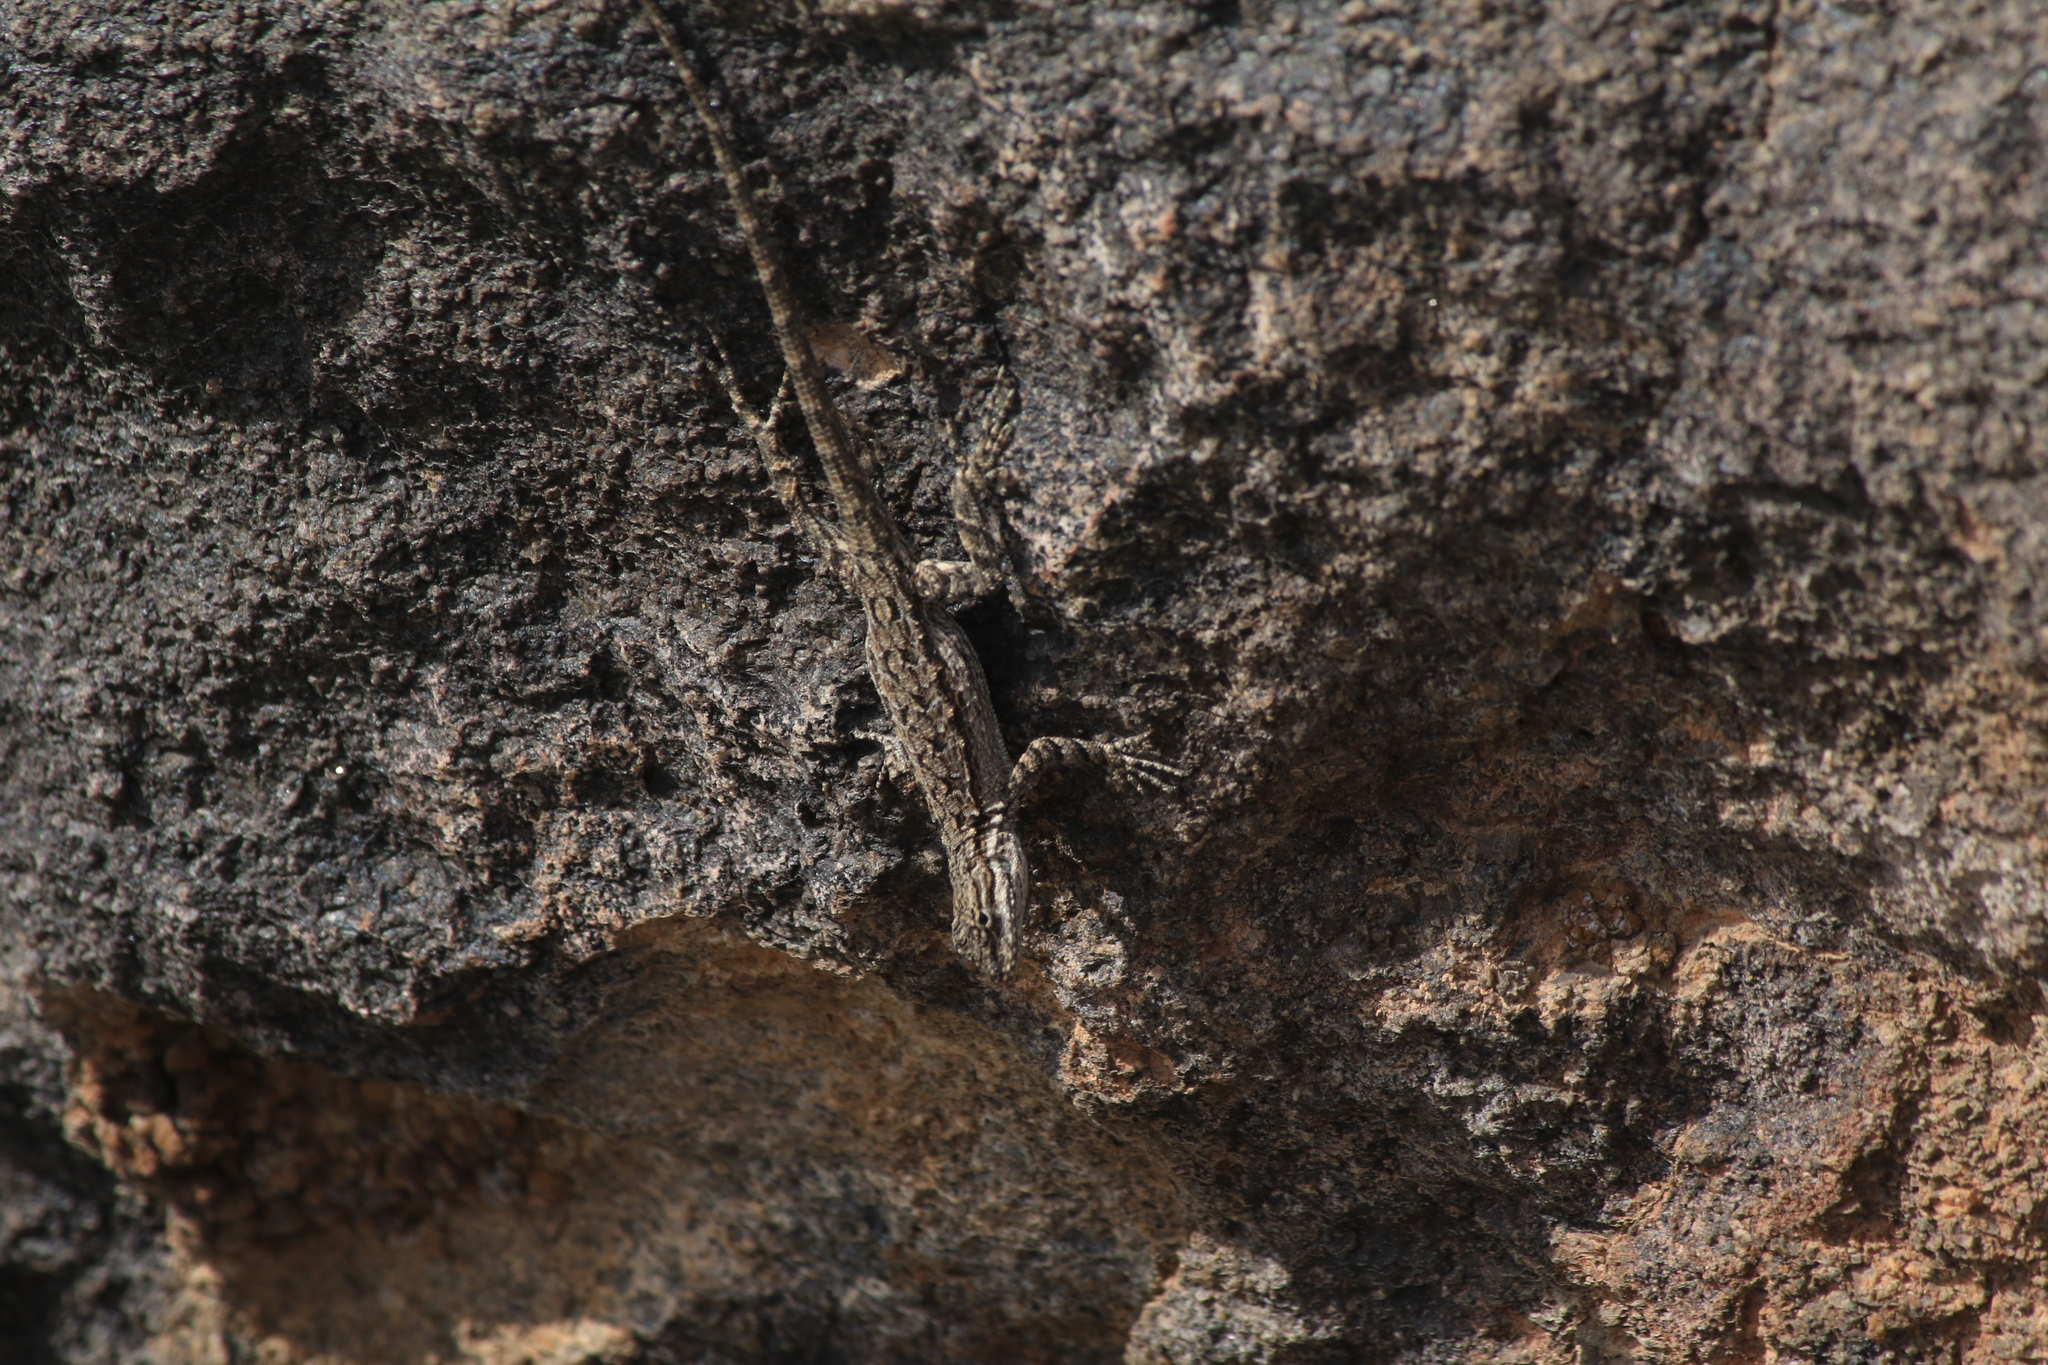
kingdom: Animalia
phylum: Chordata
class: Squamata
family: Phrynosomatidae
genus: Urosaurus
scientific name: Urosaurus ornatus
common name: Ornate tree lizard
